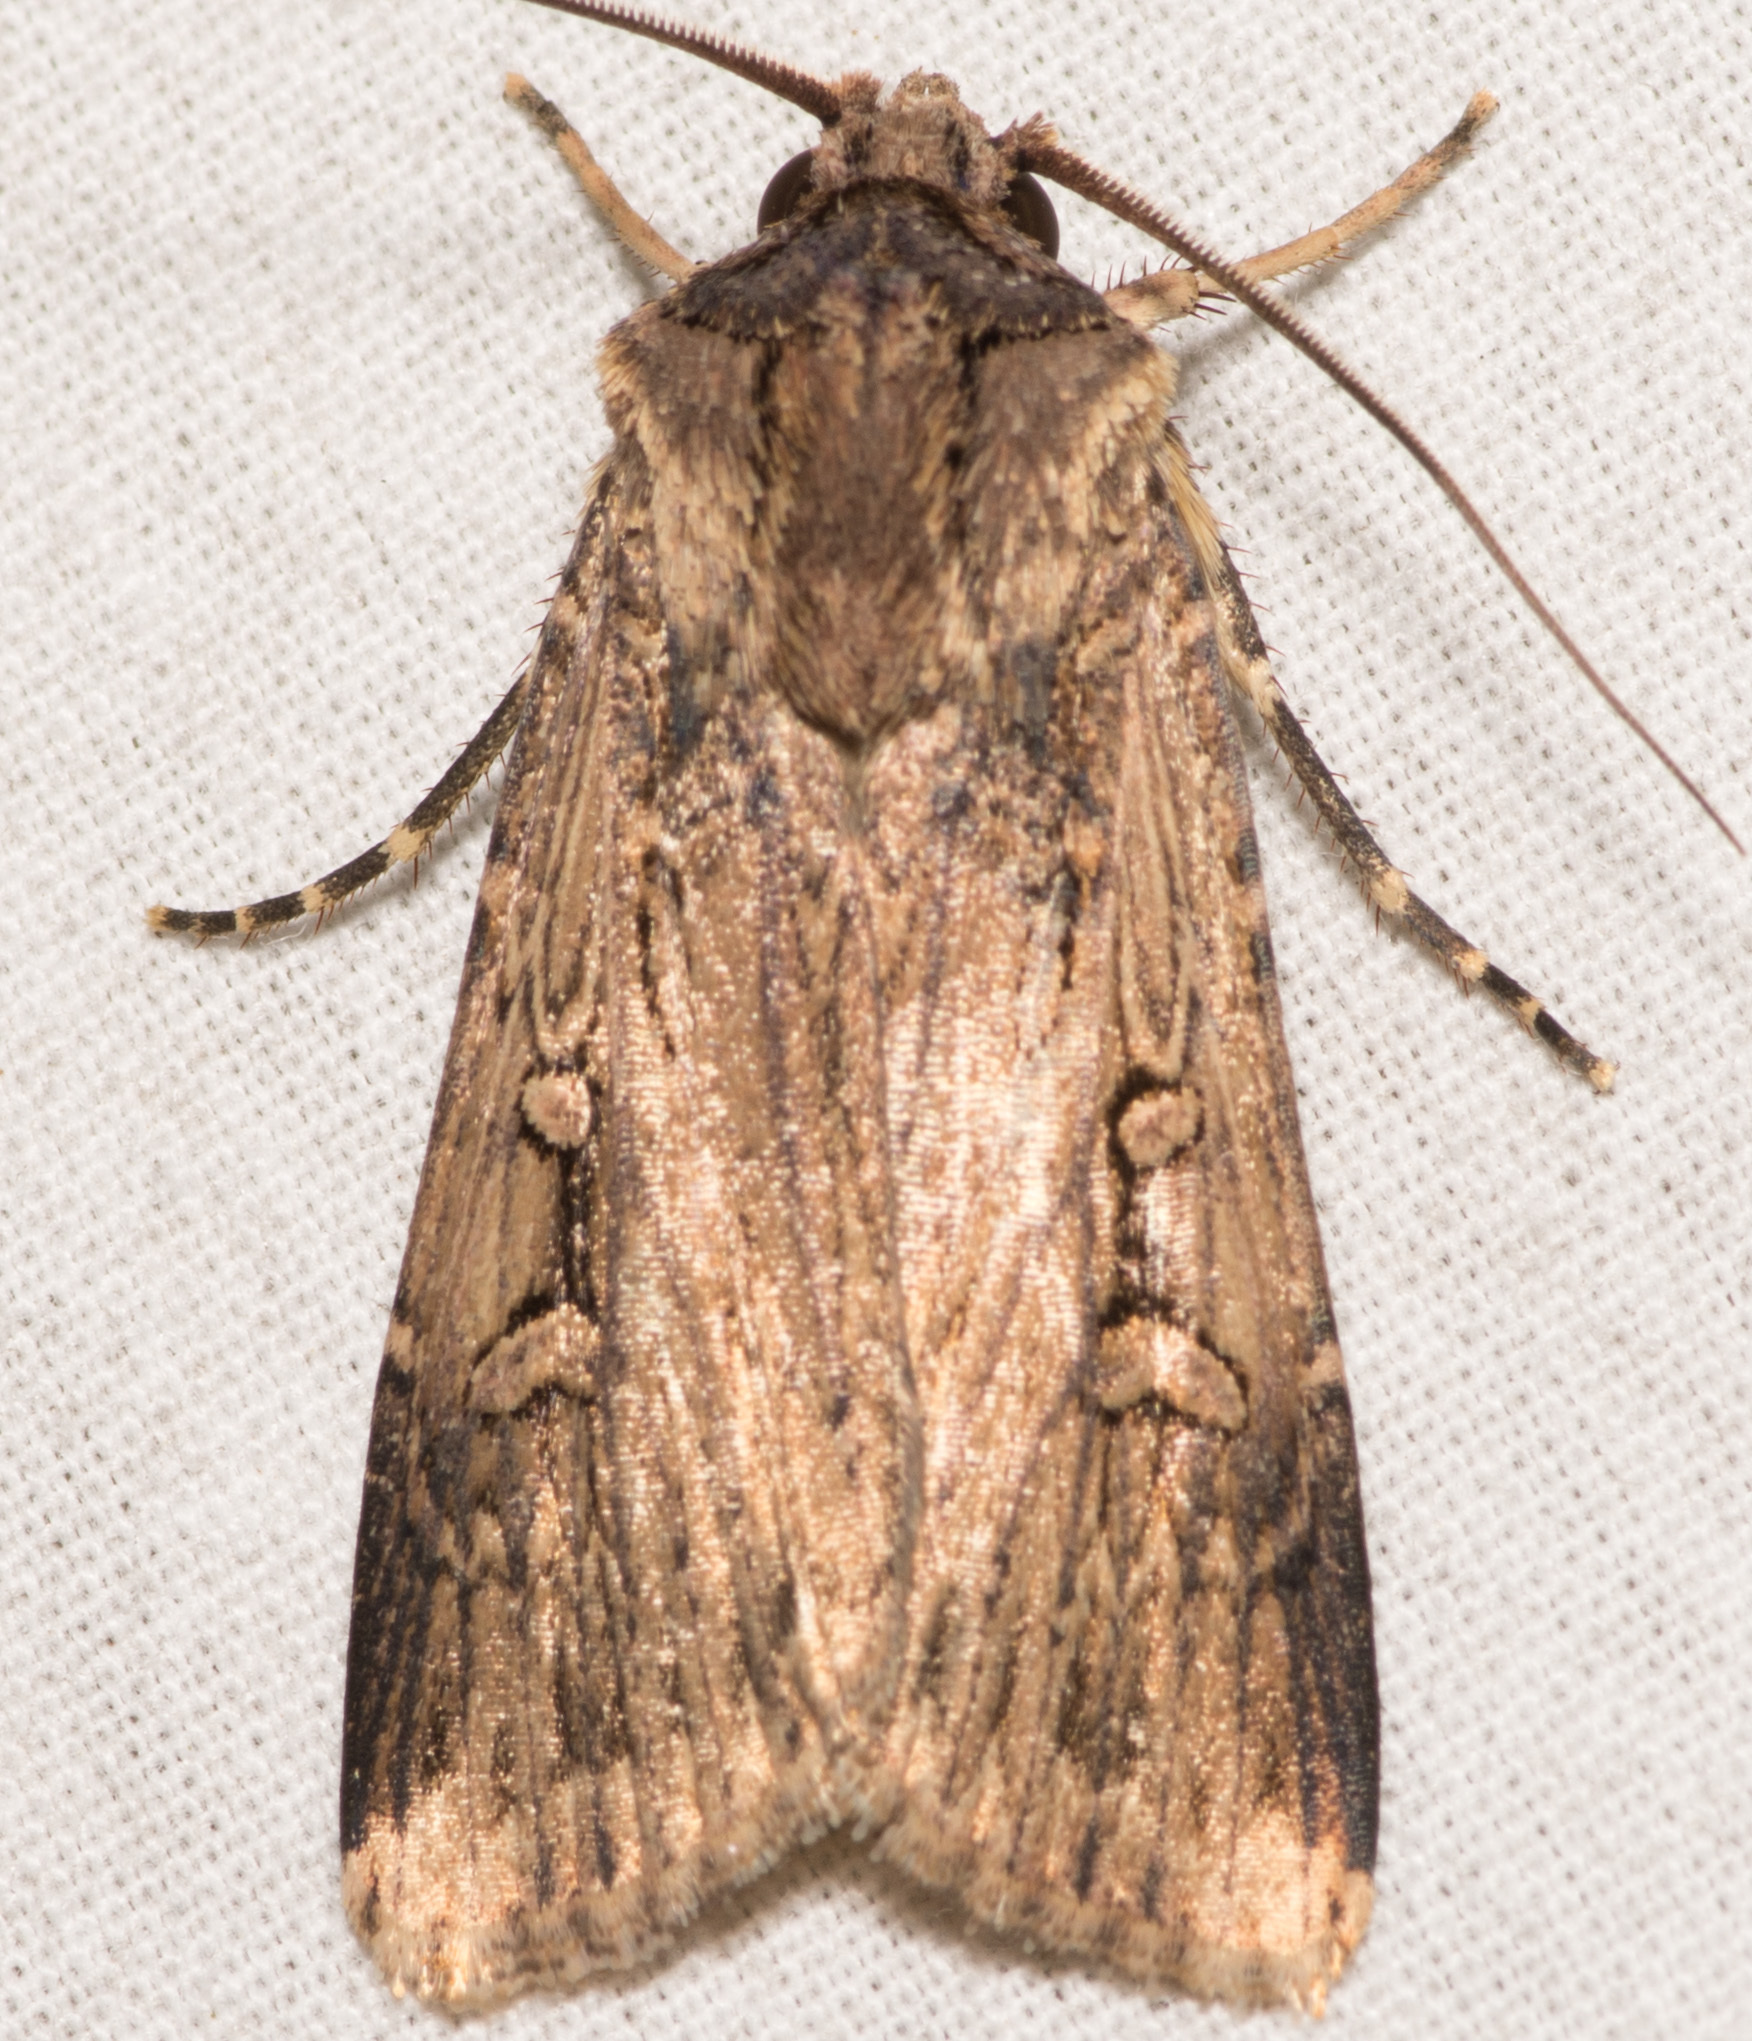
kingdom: Animalia
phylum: Arthropoda
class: Insecta
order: Lepidoptera
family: Noctuidae
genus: Feltia
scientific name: Feltia subterranea
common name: Granulate cutworm
